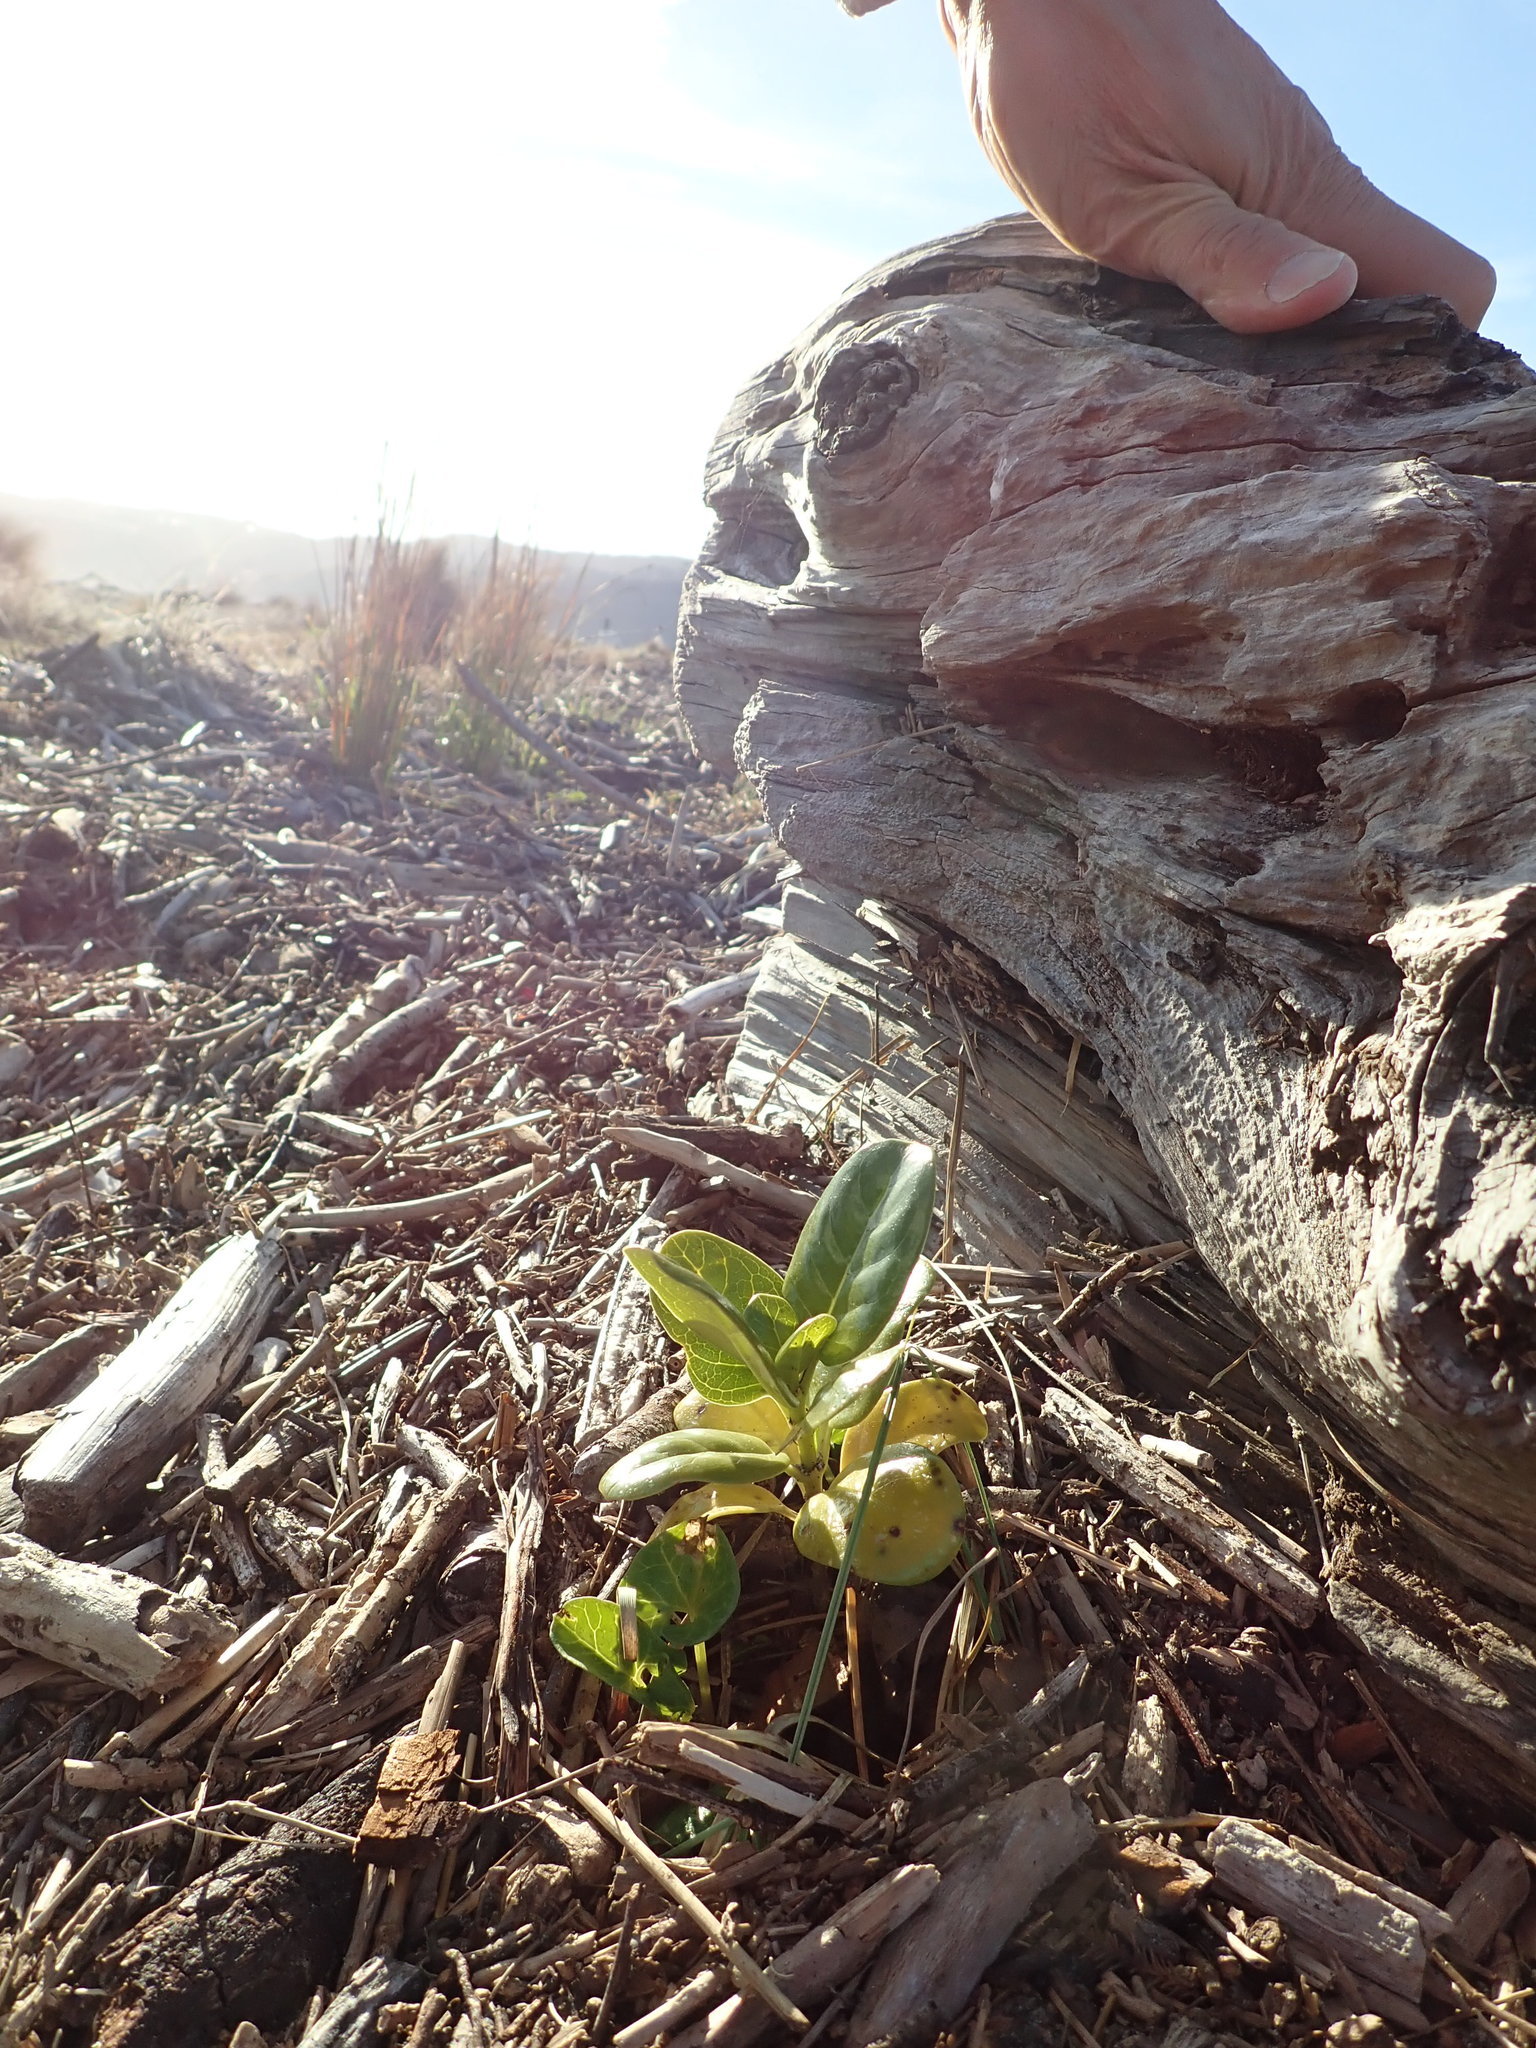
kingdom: Plantae
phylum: Tracheophyta
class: Magnoliopsida
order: Gentianales
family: Rubiaceae
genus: Coprosma
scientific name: Coprosma repens
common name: Tree bedstraw
